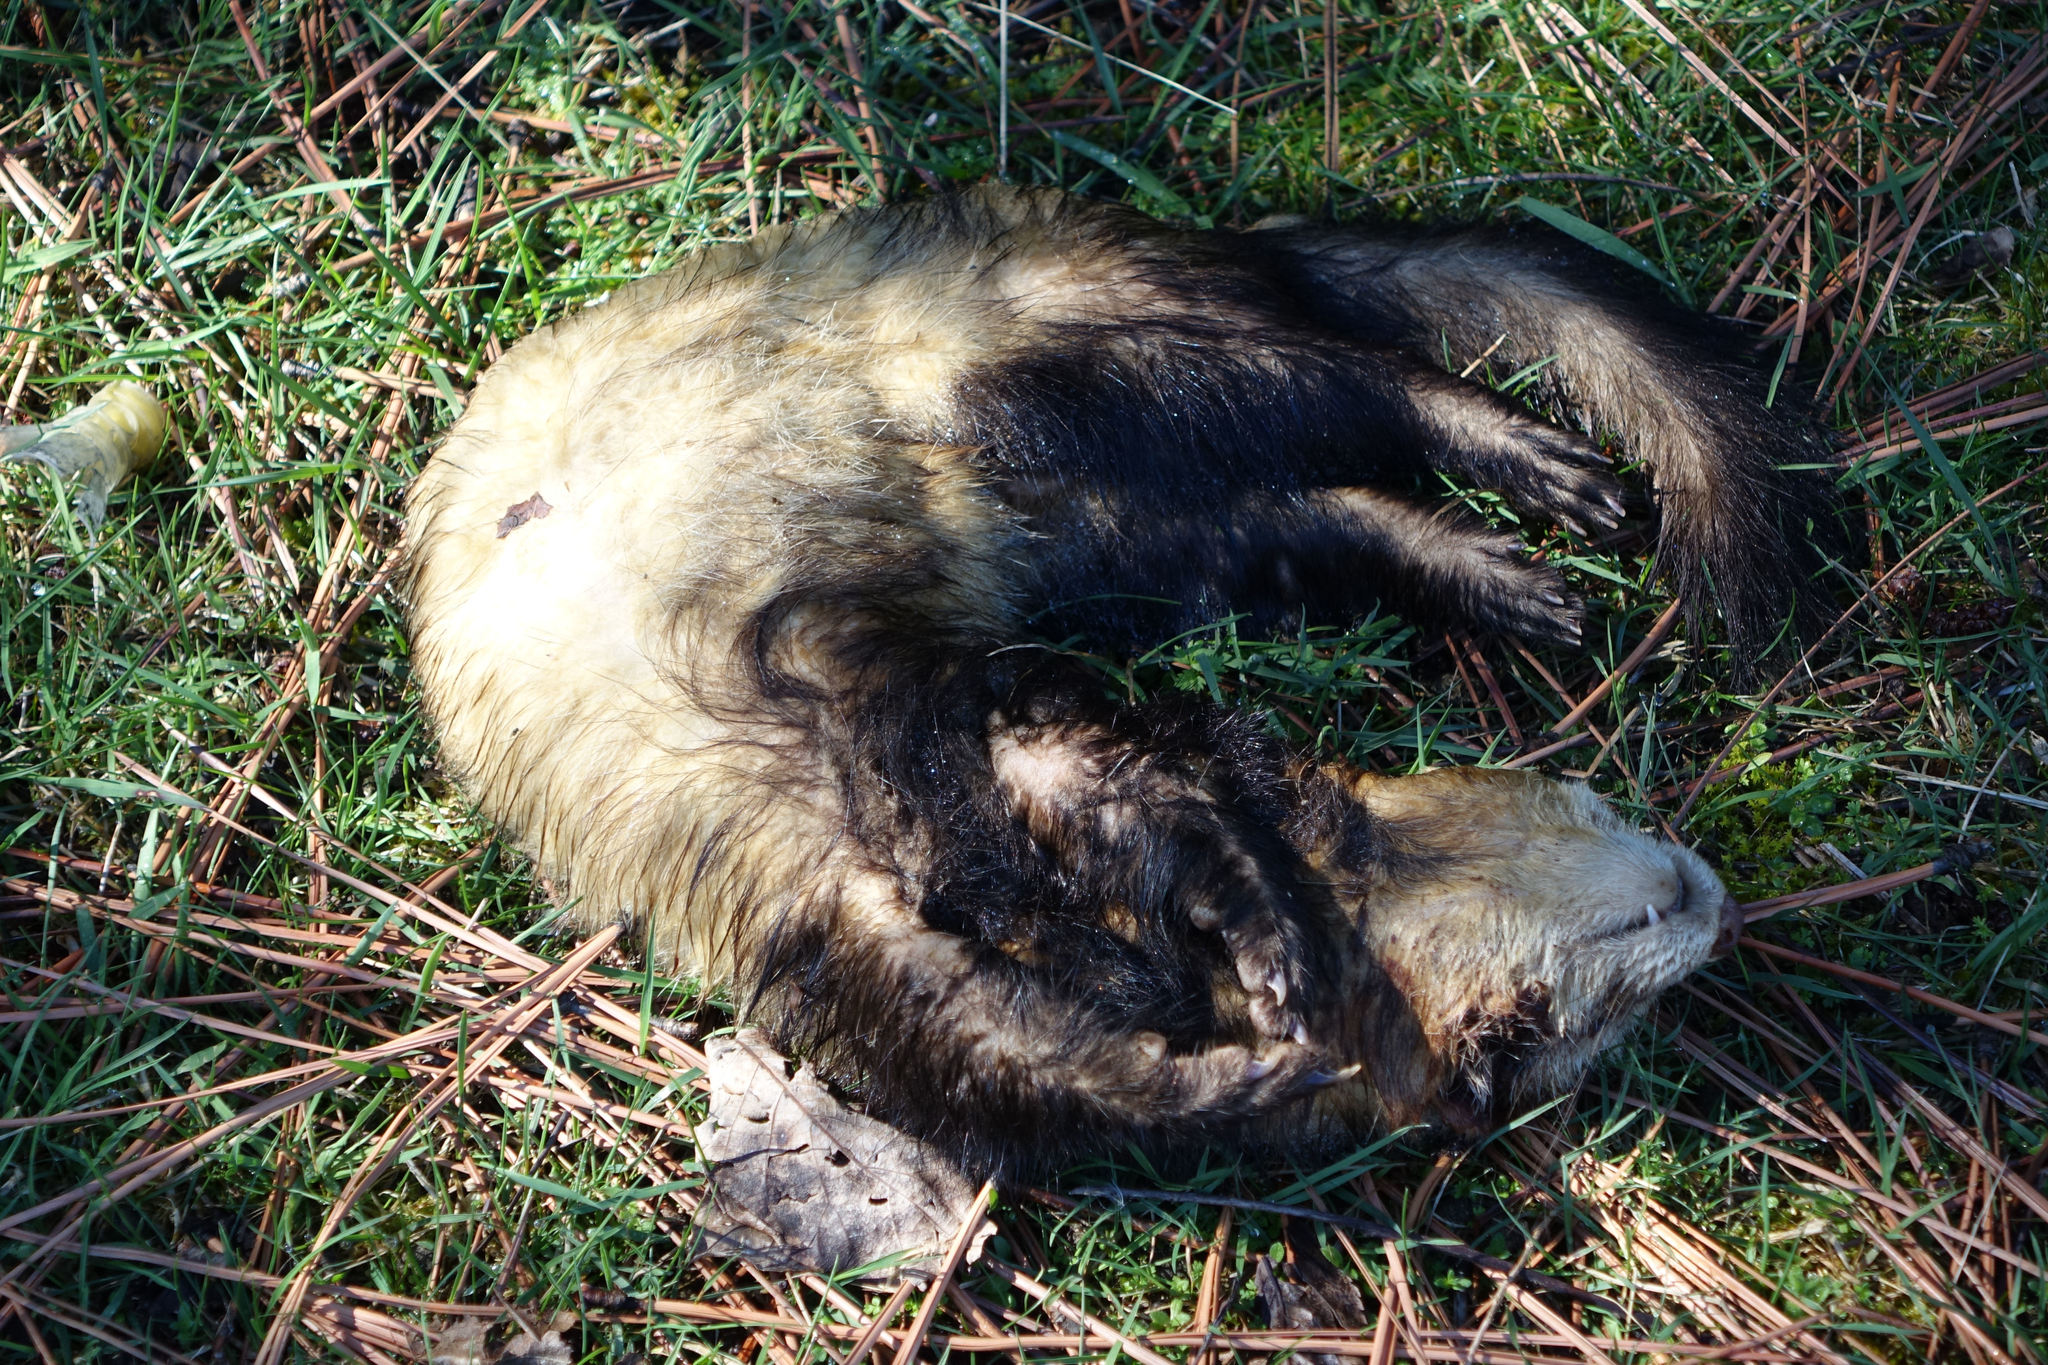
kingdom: Animalia
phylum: Chordata
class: Mammalia
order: Carnivora
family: Mustelidae
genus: Mustela
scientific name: Mustela putorius
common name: European polecat
